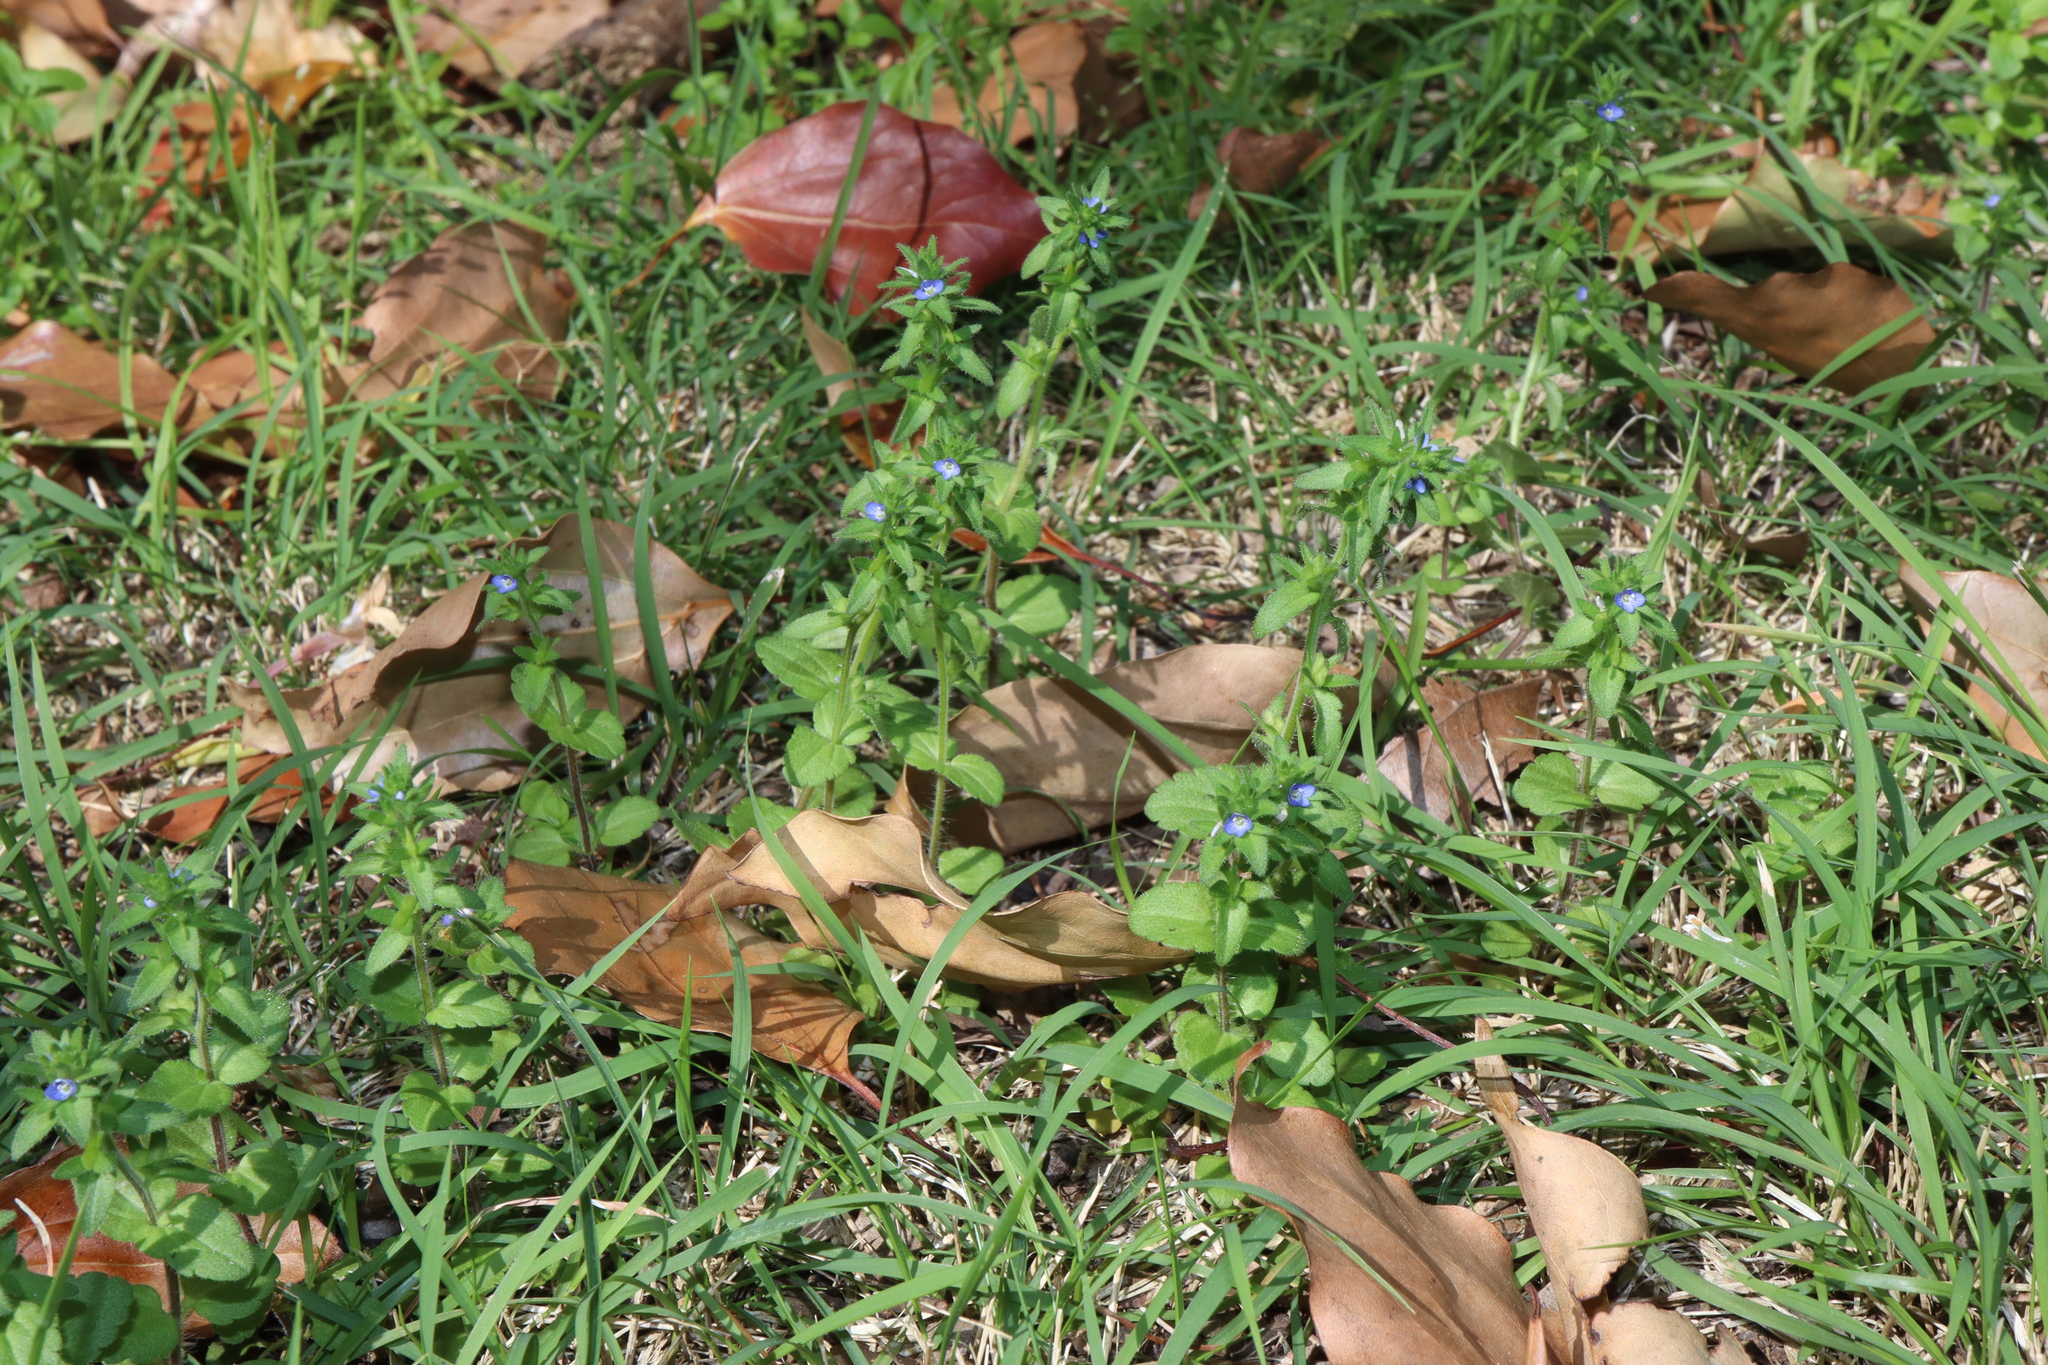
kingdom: Plantae
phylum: Tracheophyta
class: Magnoliopsida
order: Lamiales
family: Plantaginaceae
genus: Veronica
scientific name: Veronica arvensis
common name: Corn speedwell
